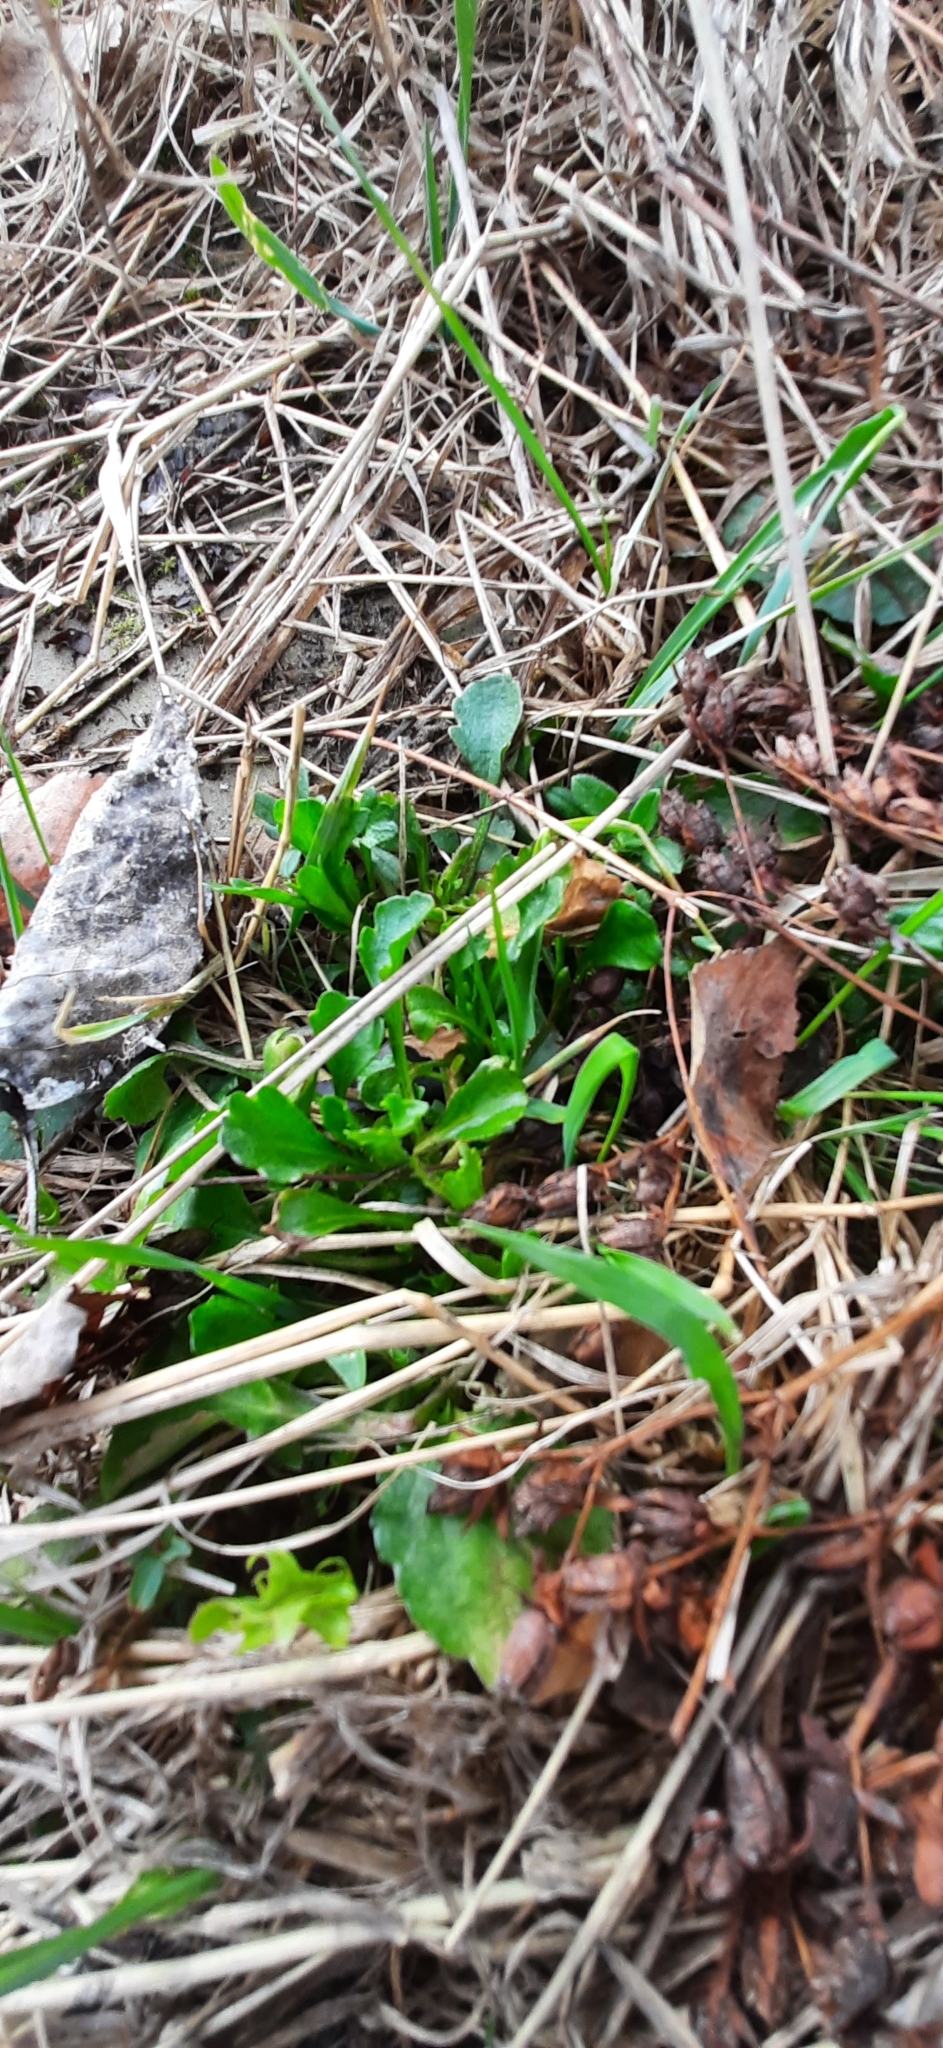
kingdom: Plantae
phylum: Tracheophyta
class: Magnoliopsida
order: Asterales
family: Asteraceae
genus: Leucanthemum
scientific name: Leucanthemum ircutianum
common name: Daisy
